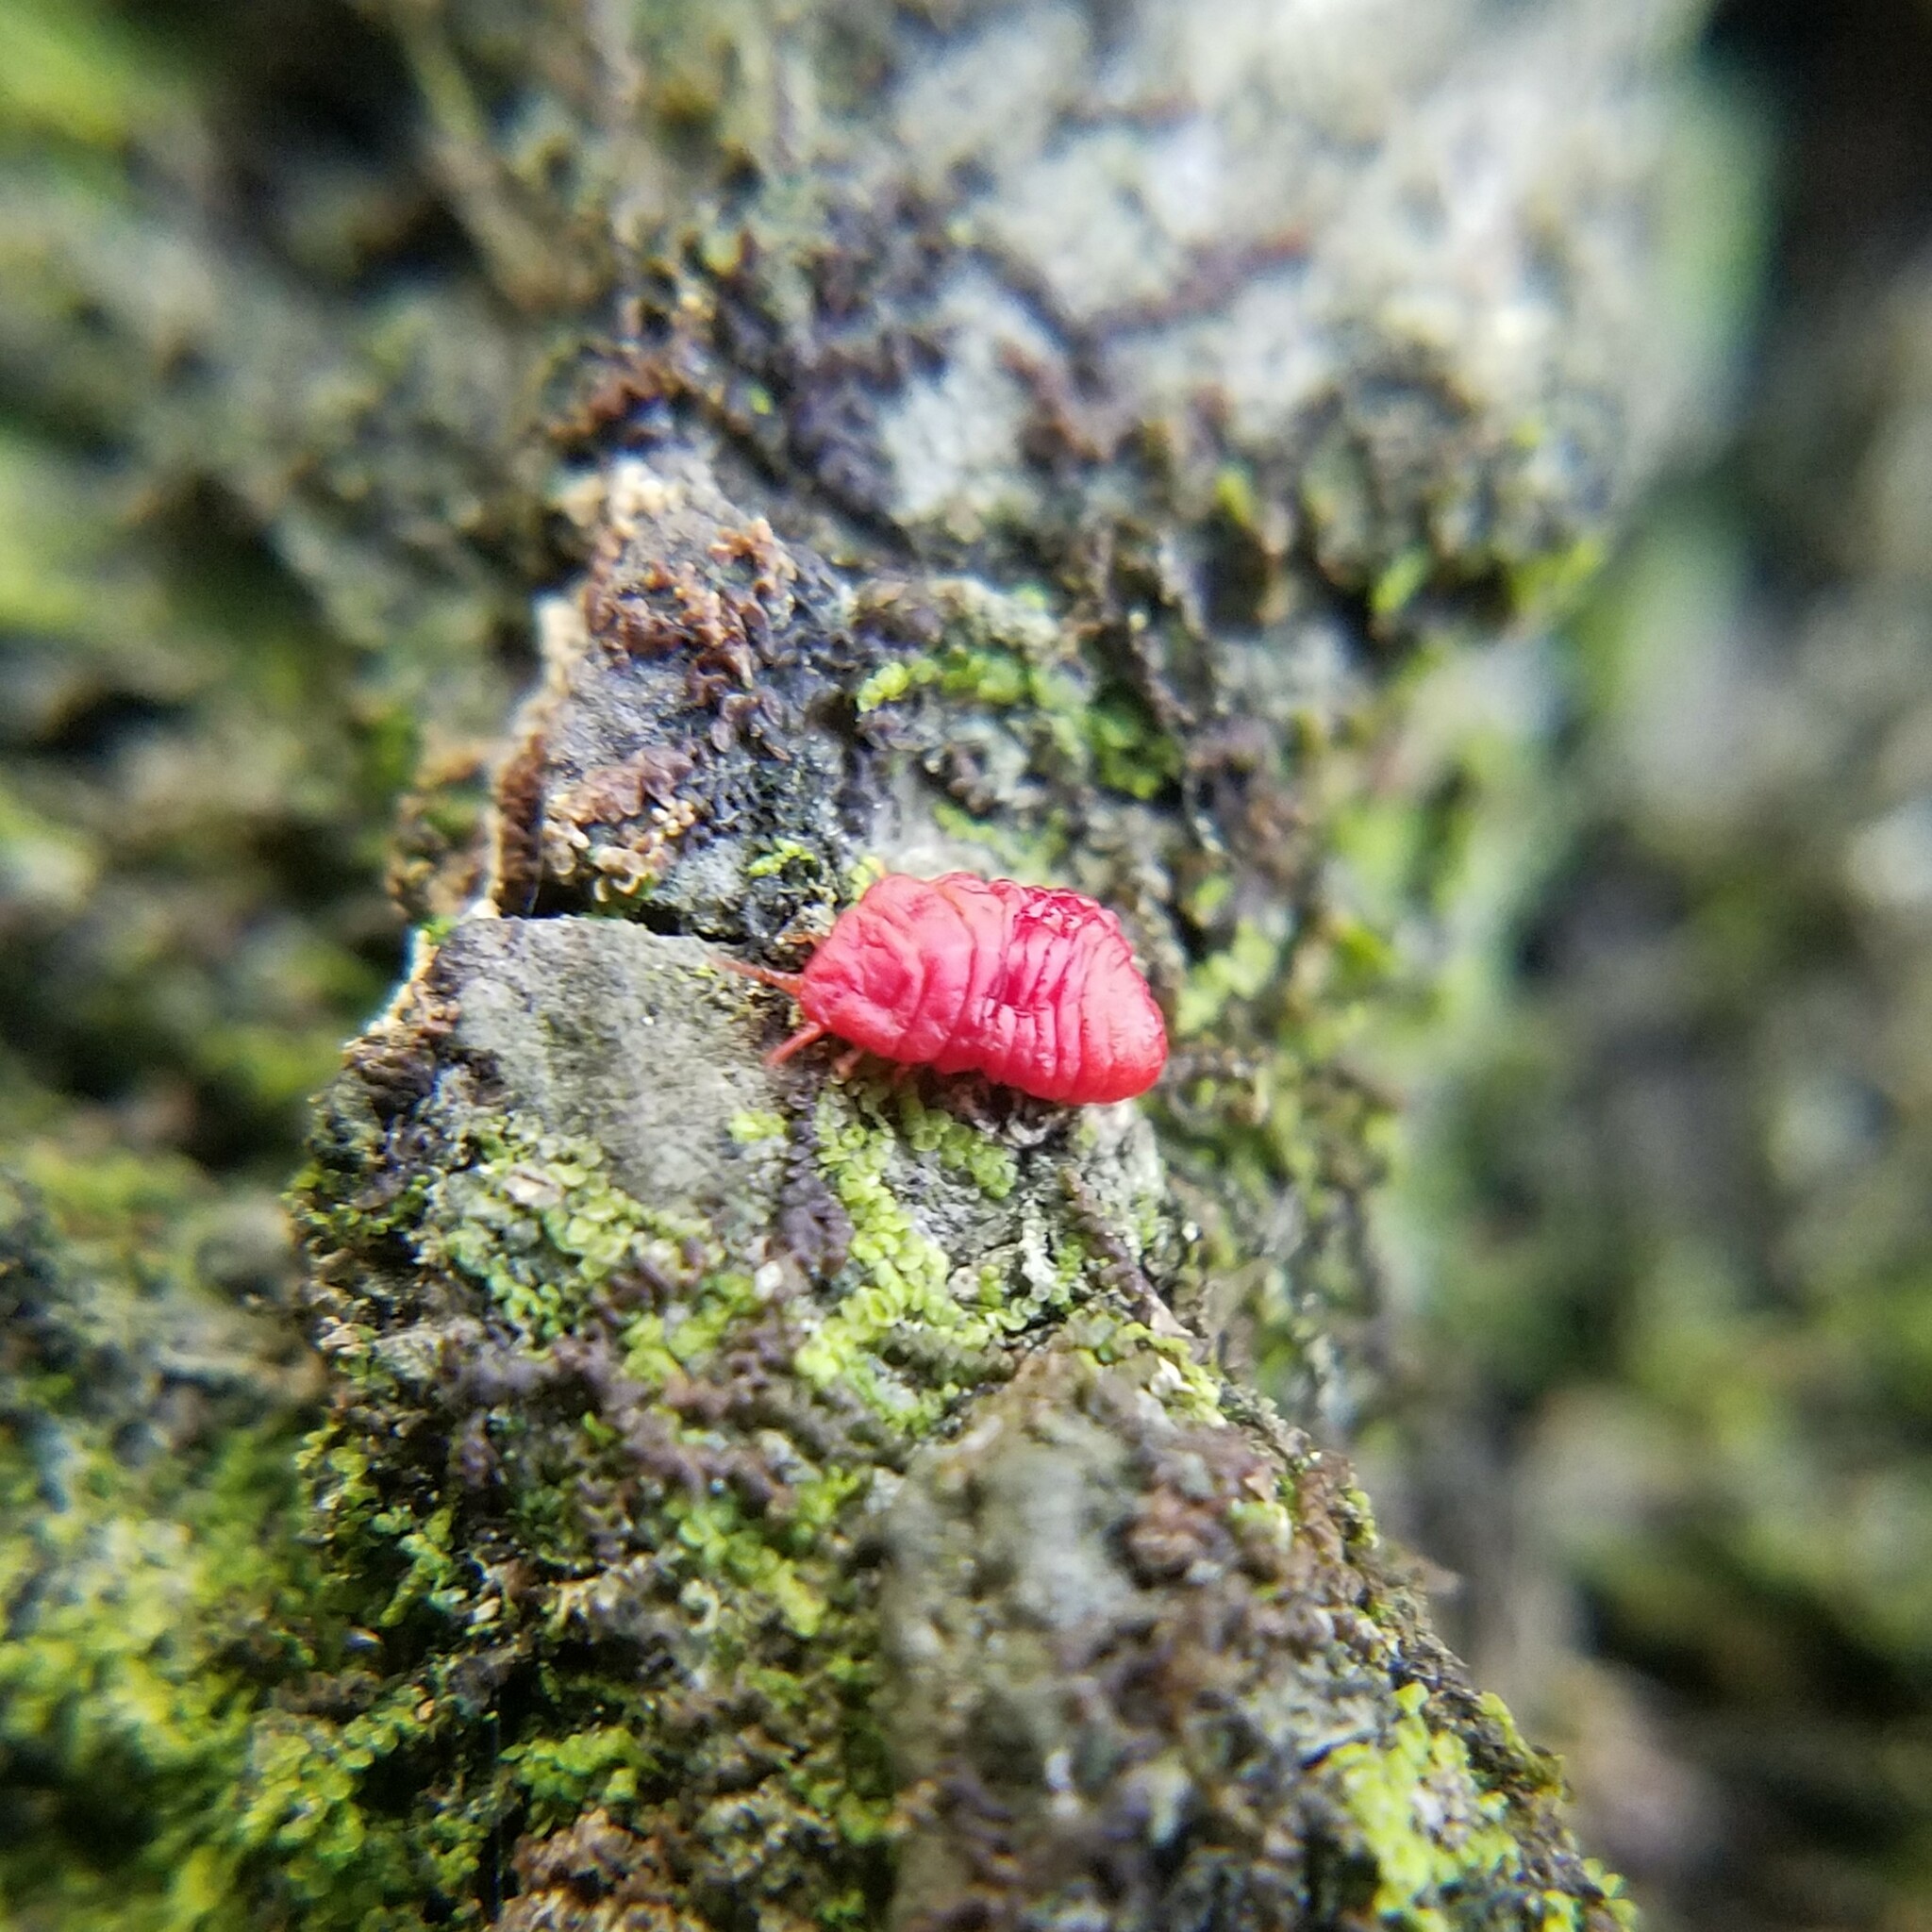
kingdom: Animalia
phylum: Arthropoda
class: Insecta
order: Hemiptera
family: Margarodidae
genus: Neosteingelia
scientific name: Neosteingelia texana
